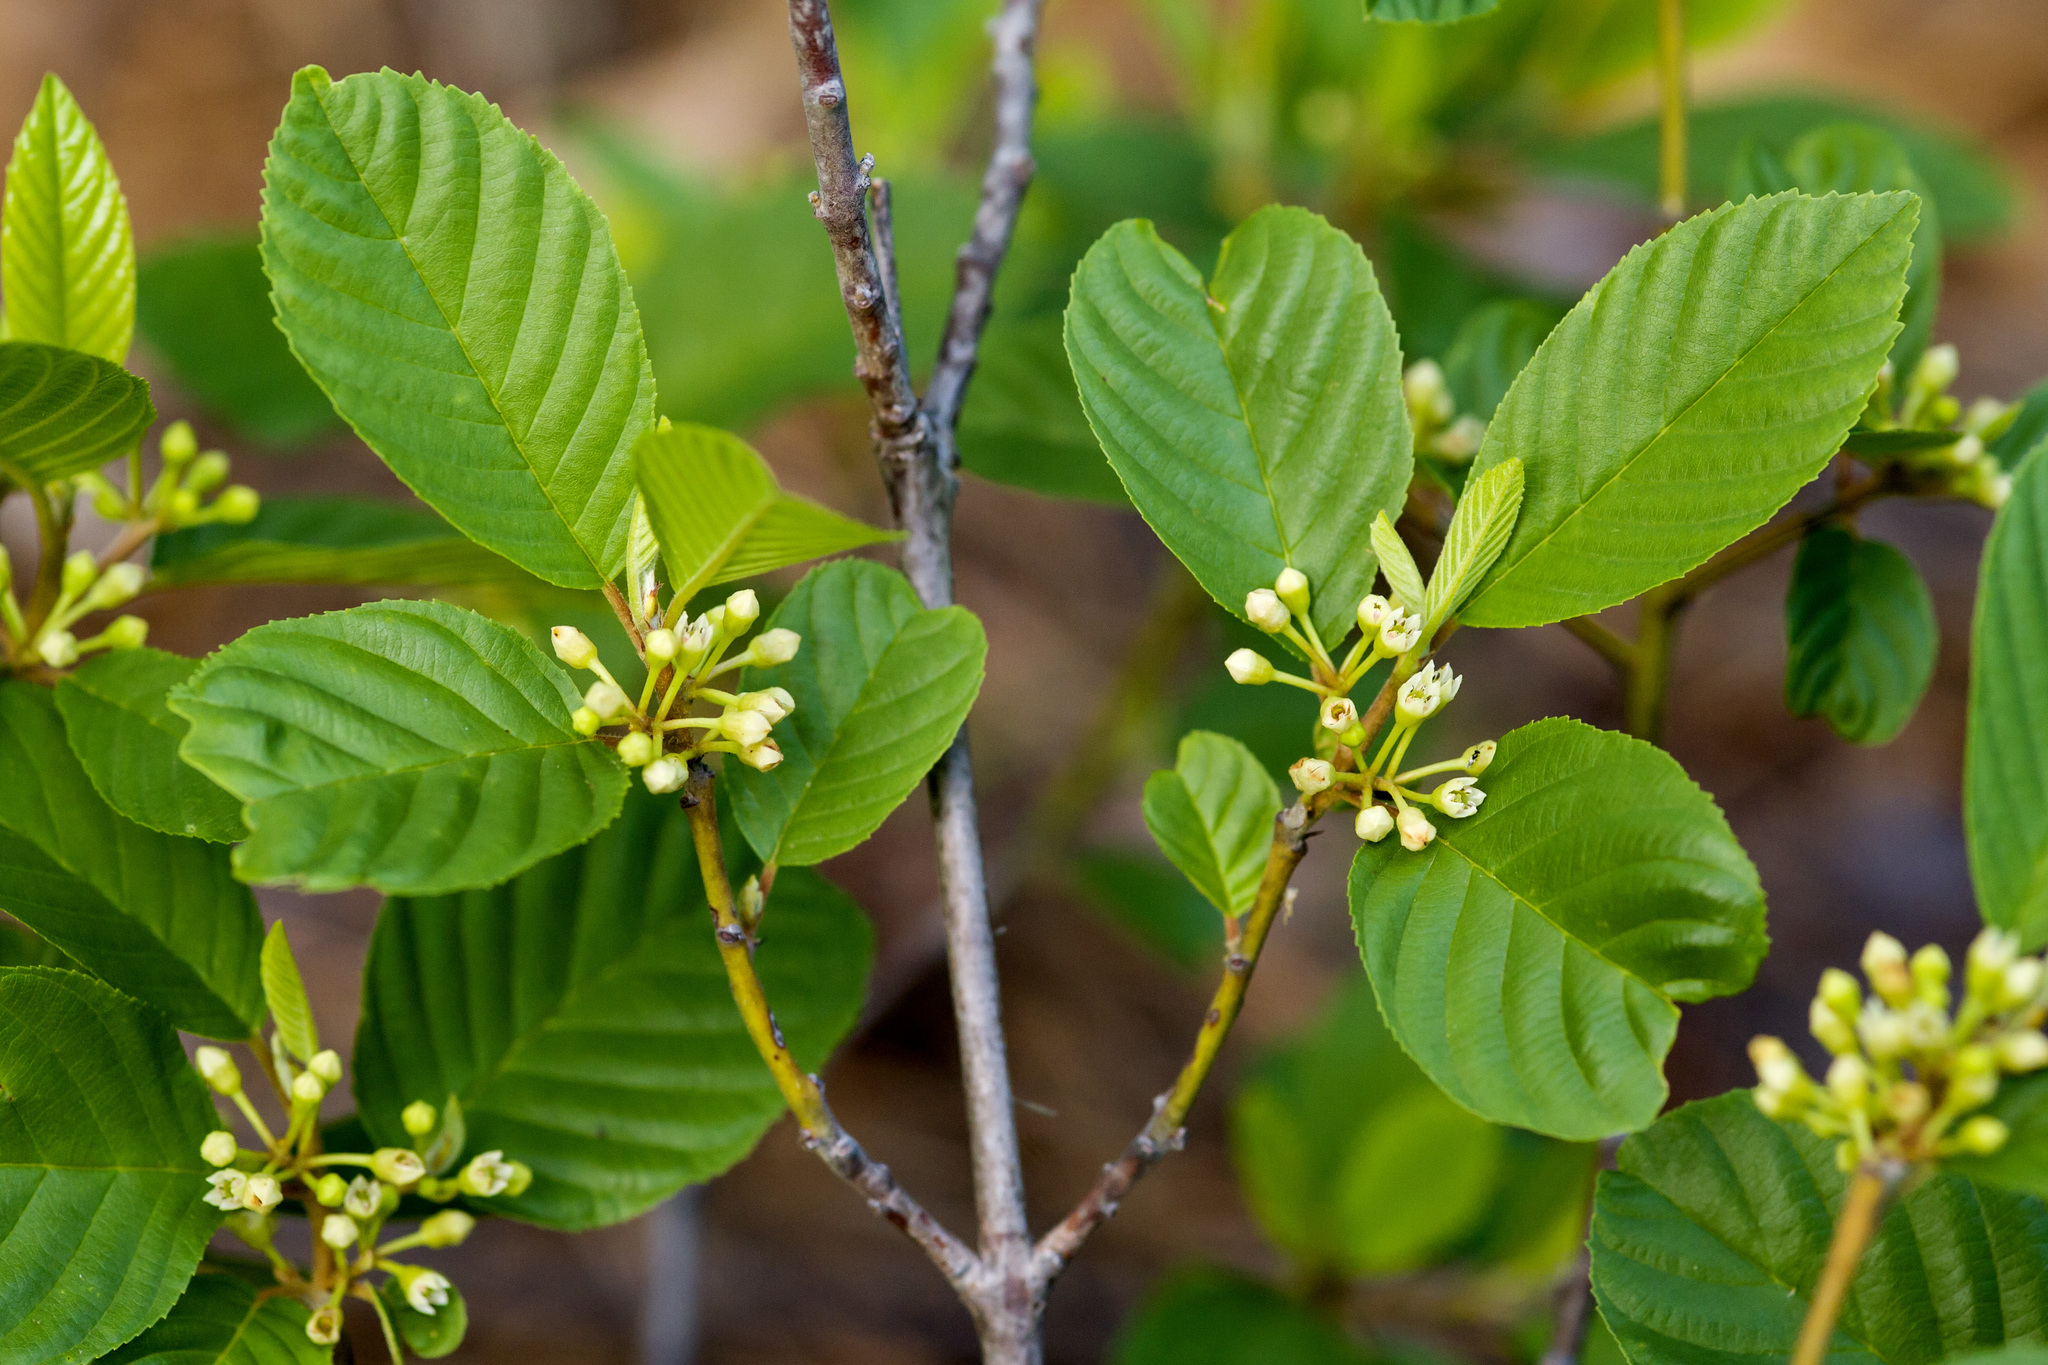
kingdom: Plantae
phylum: Tracheophyta
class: Magnoliopsida
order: Rosales
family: Rhamnaceae
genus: Frangula
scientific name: Frangula betulifolia
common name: Birch-leaf buckthorn
